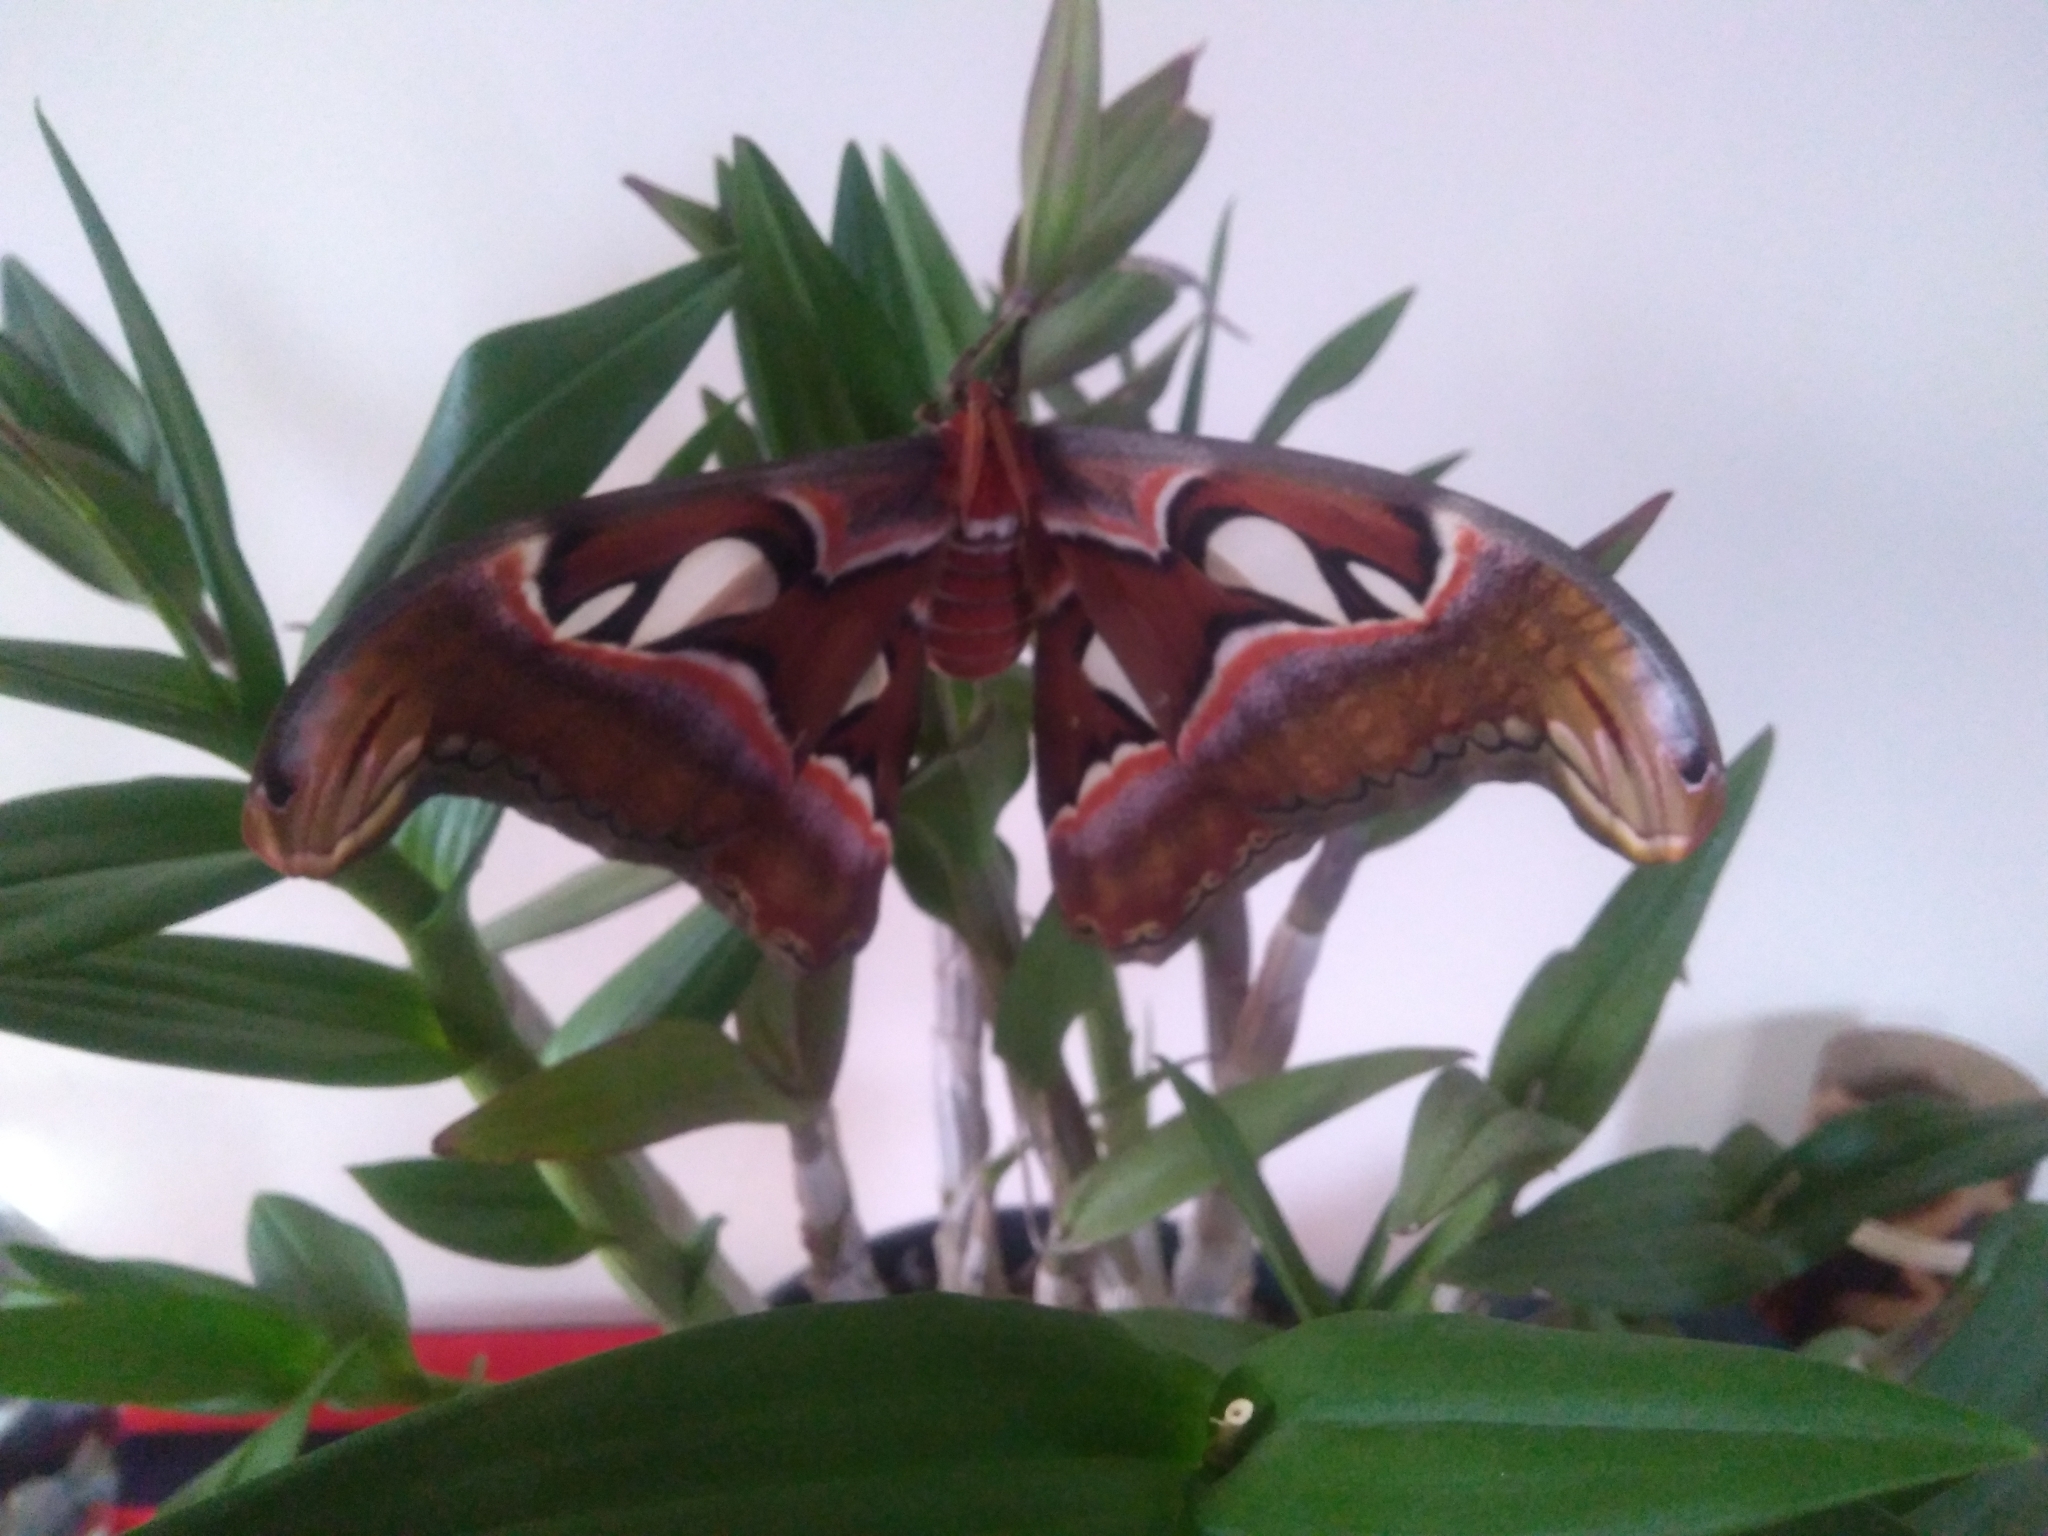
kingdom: Animalia
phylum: Arthropoda
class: Insecta
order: Lepidoptera
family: Saturniidae
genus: Attacus
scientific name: Attacus taprobanis
